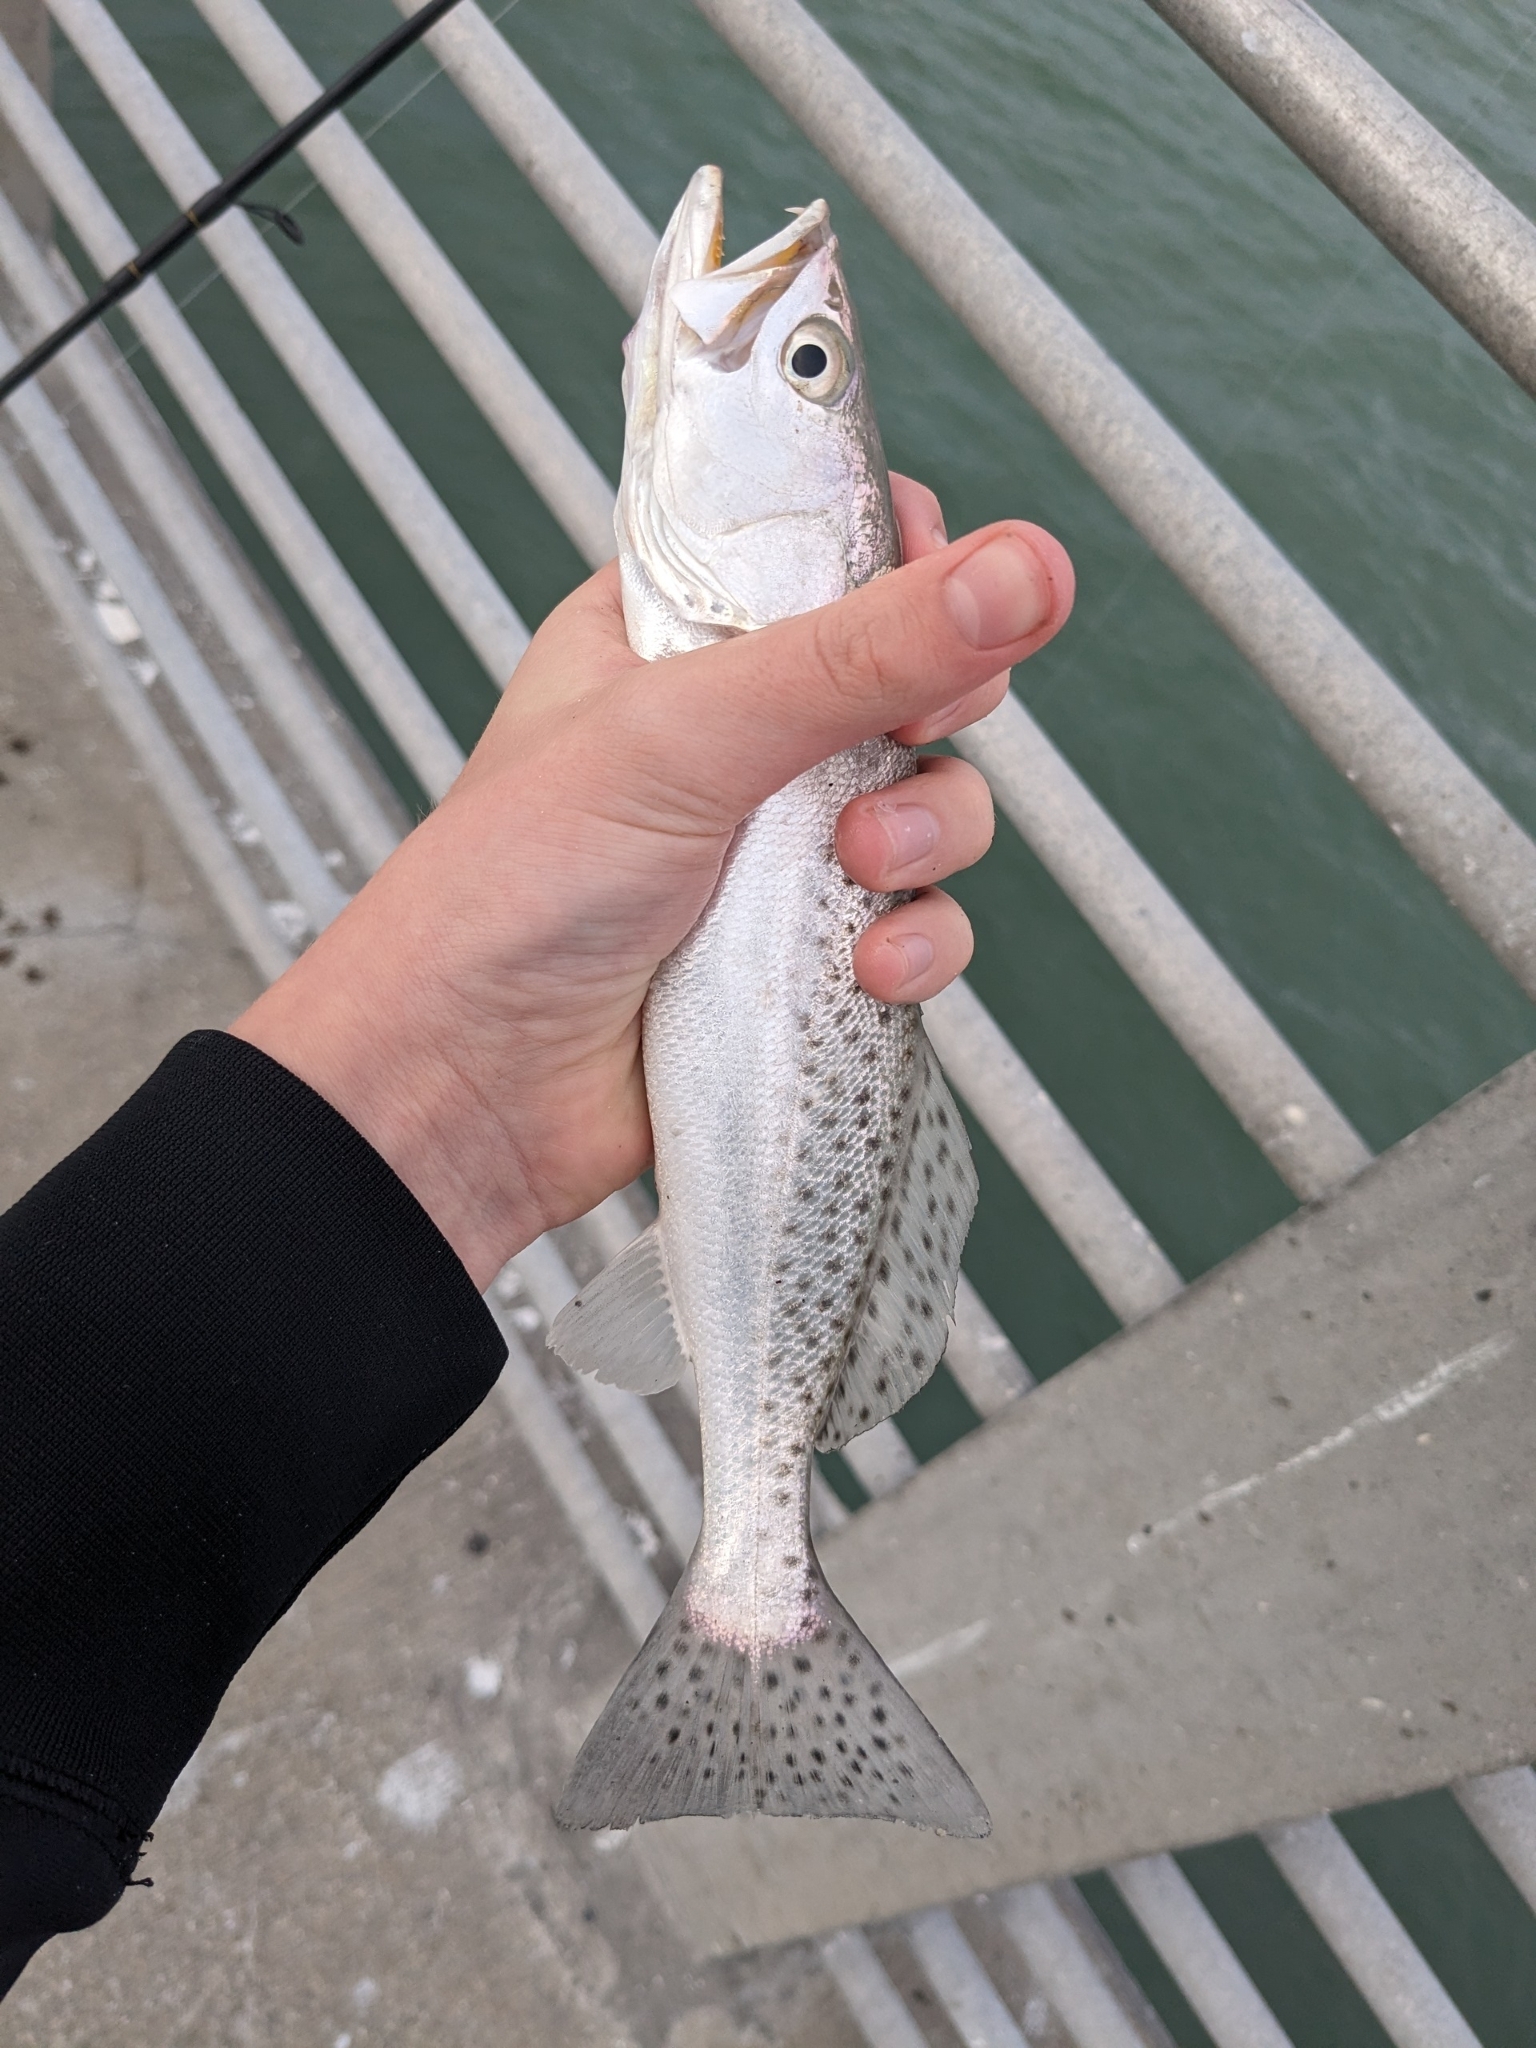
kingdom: Animalia
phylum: Chordata
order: Perciformes
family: Sciaenidae
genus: Cynoscion
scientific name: Cynoscion nebulosus
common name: Spotted seatrout
